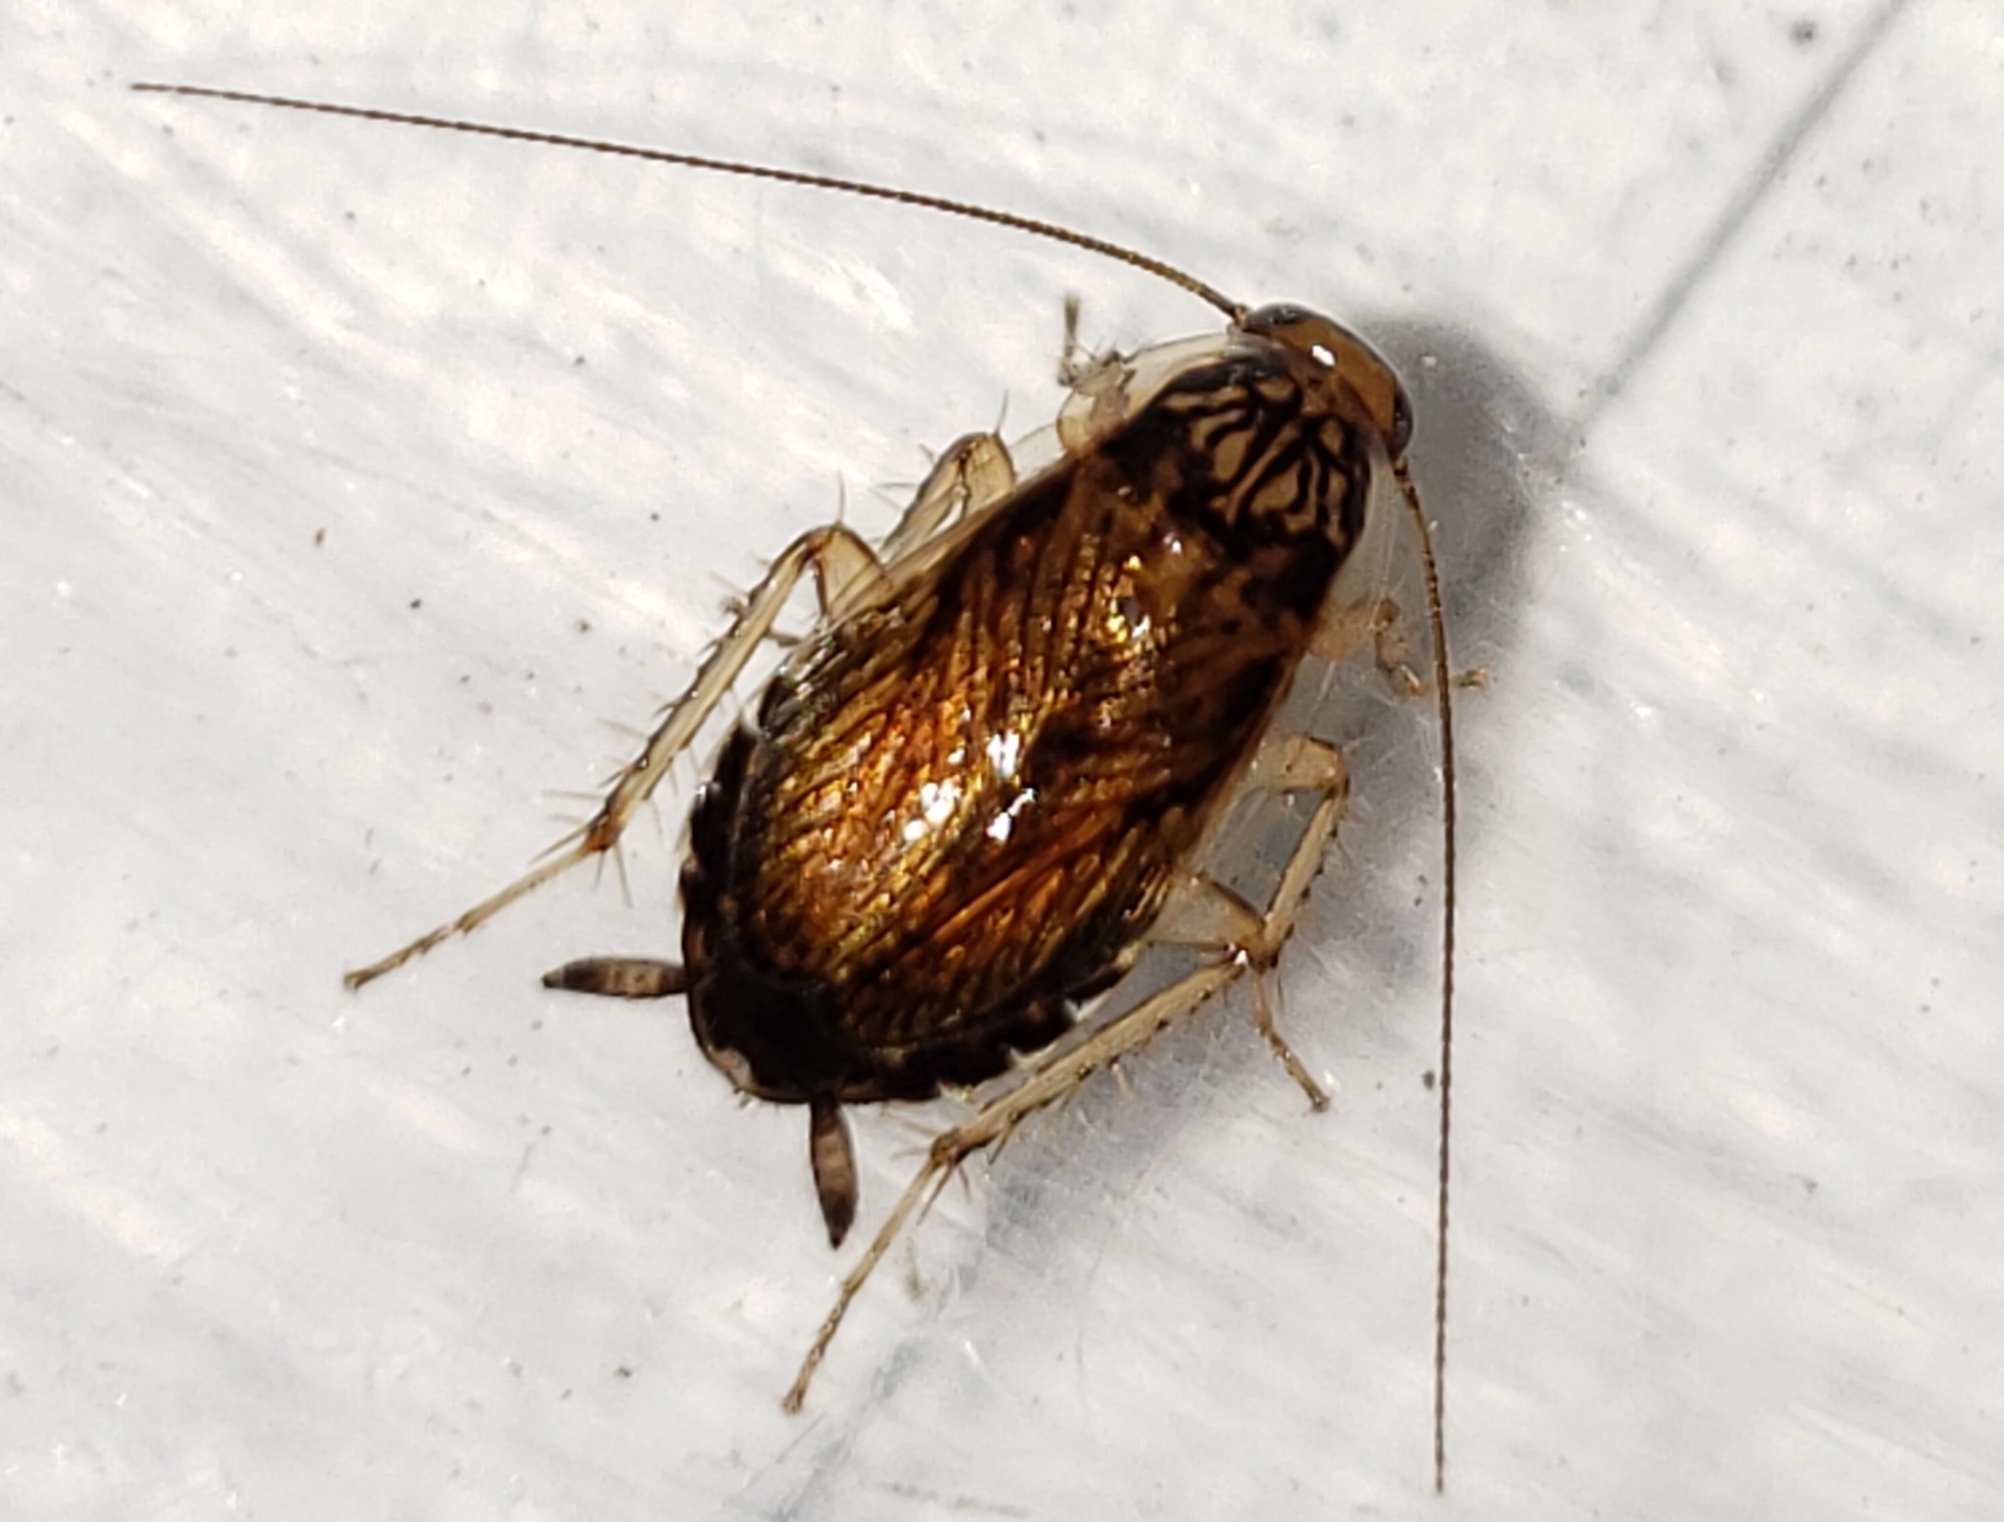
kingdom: Animalia
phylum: Arthropoda
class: Insecta
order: Blattodea
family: Ectobiidae
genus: Cariblatta
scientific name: Cariblatta lutea
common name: Small yellow cockroach
